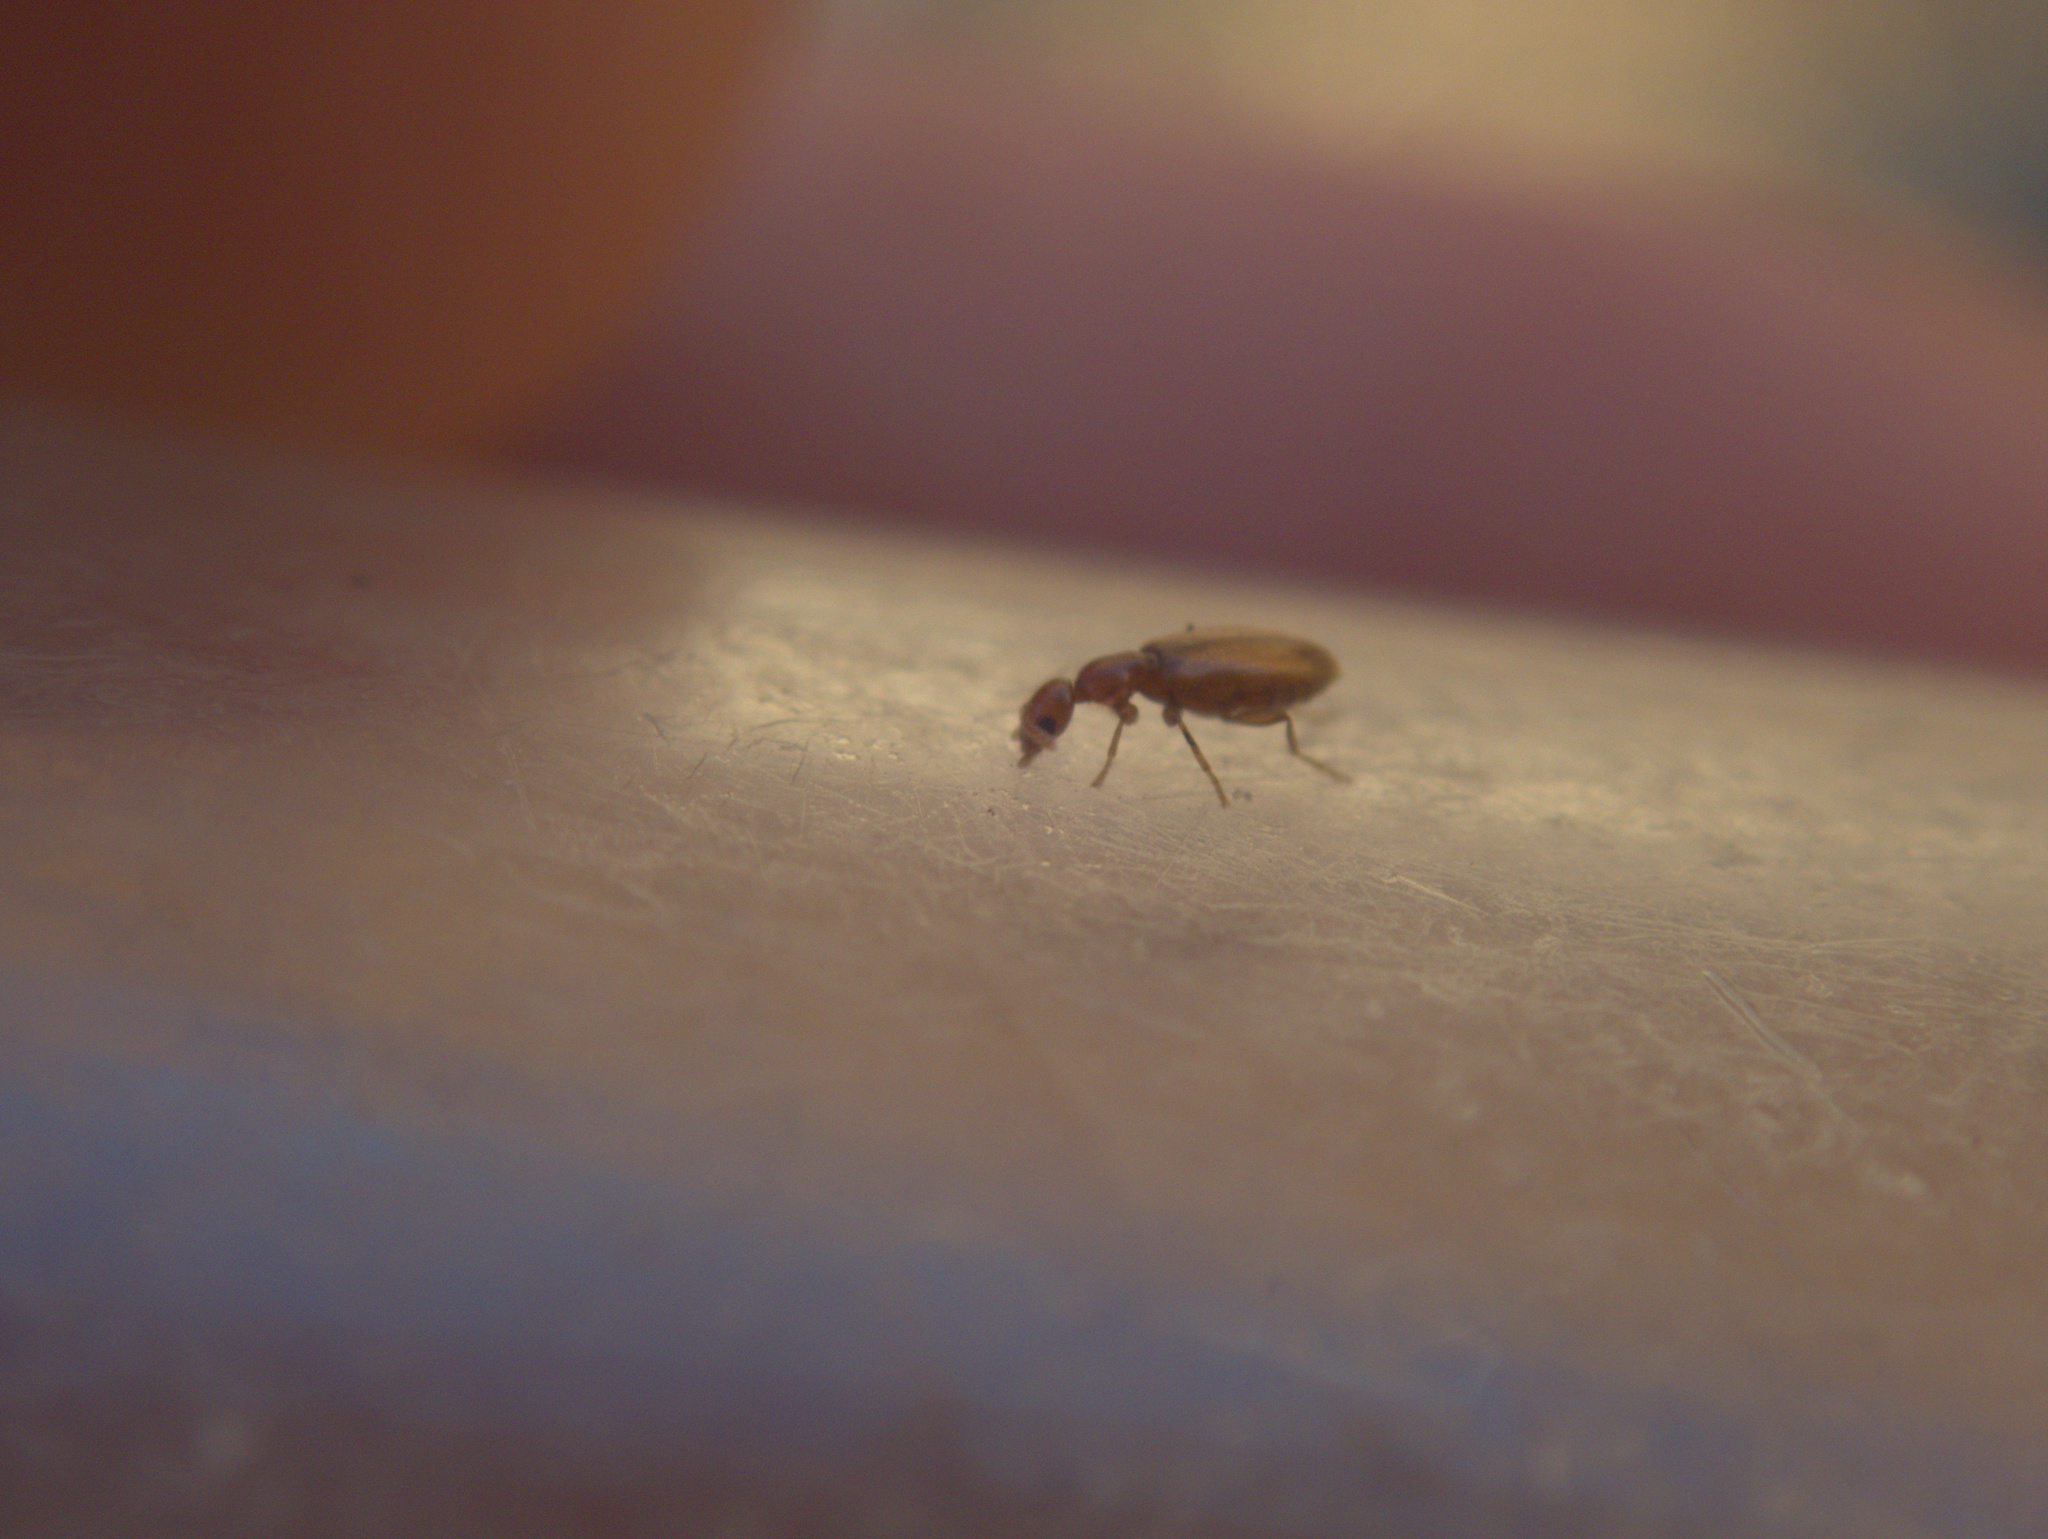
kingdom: Animalia
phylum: Arthropoda
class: Insecta
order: Coleoptera
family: Anthicidae
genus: Pseudocyclodinus
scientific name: Pseudocyclodinus
